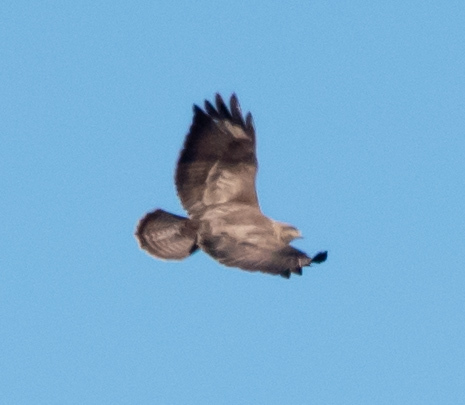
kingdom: Animalia
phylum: Chordata
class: Aves
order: Accipitriformes
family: Accipitridae
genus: Buteo
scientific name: Buteo buteo
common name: Common buzzard
